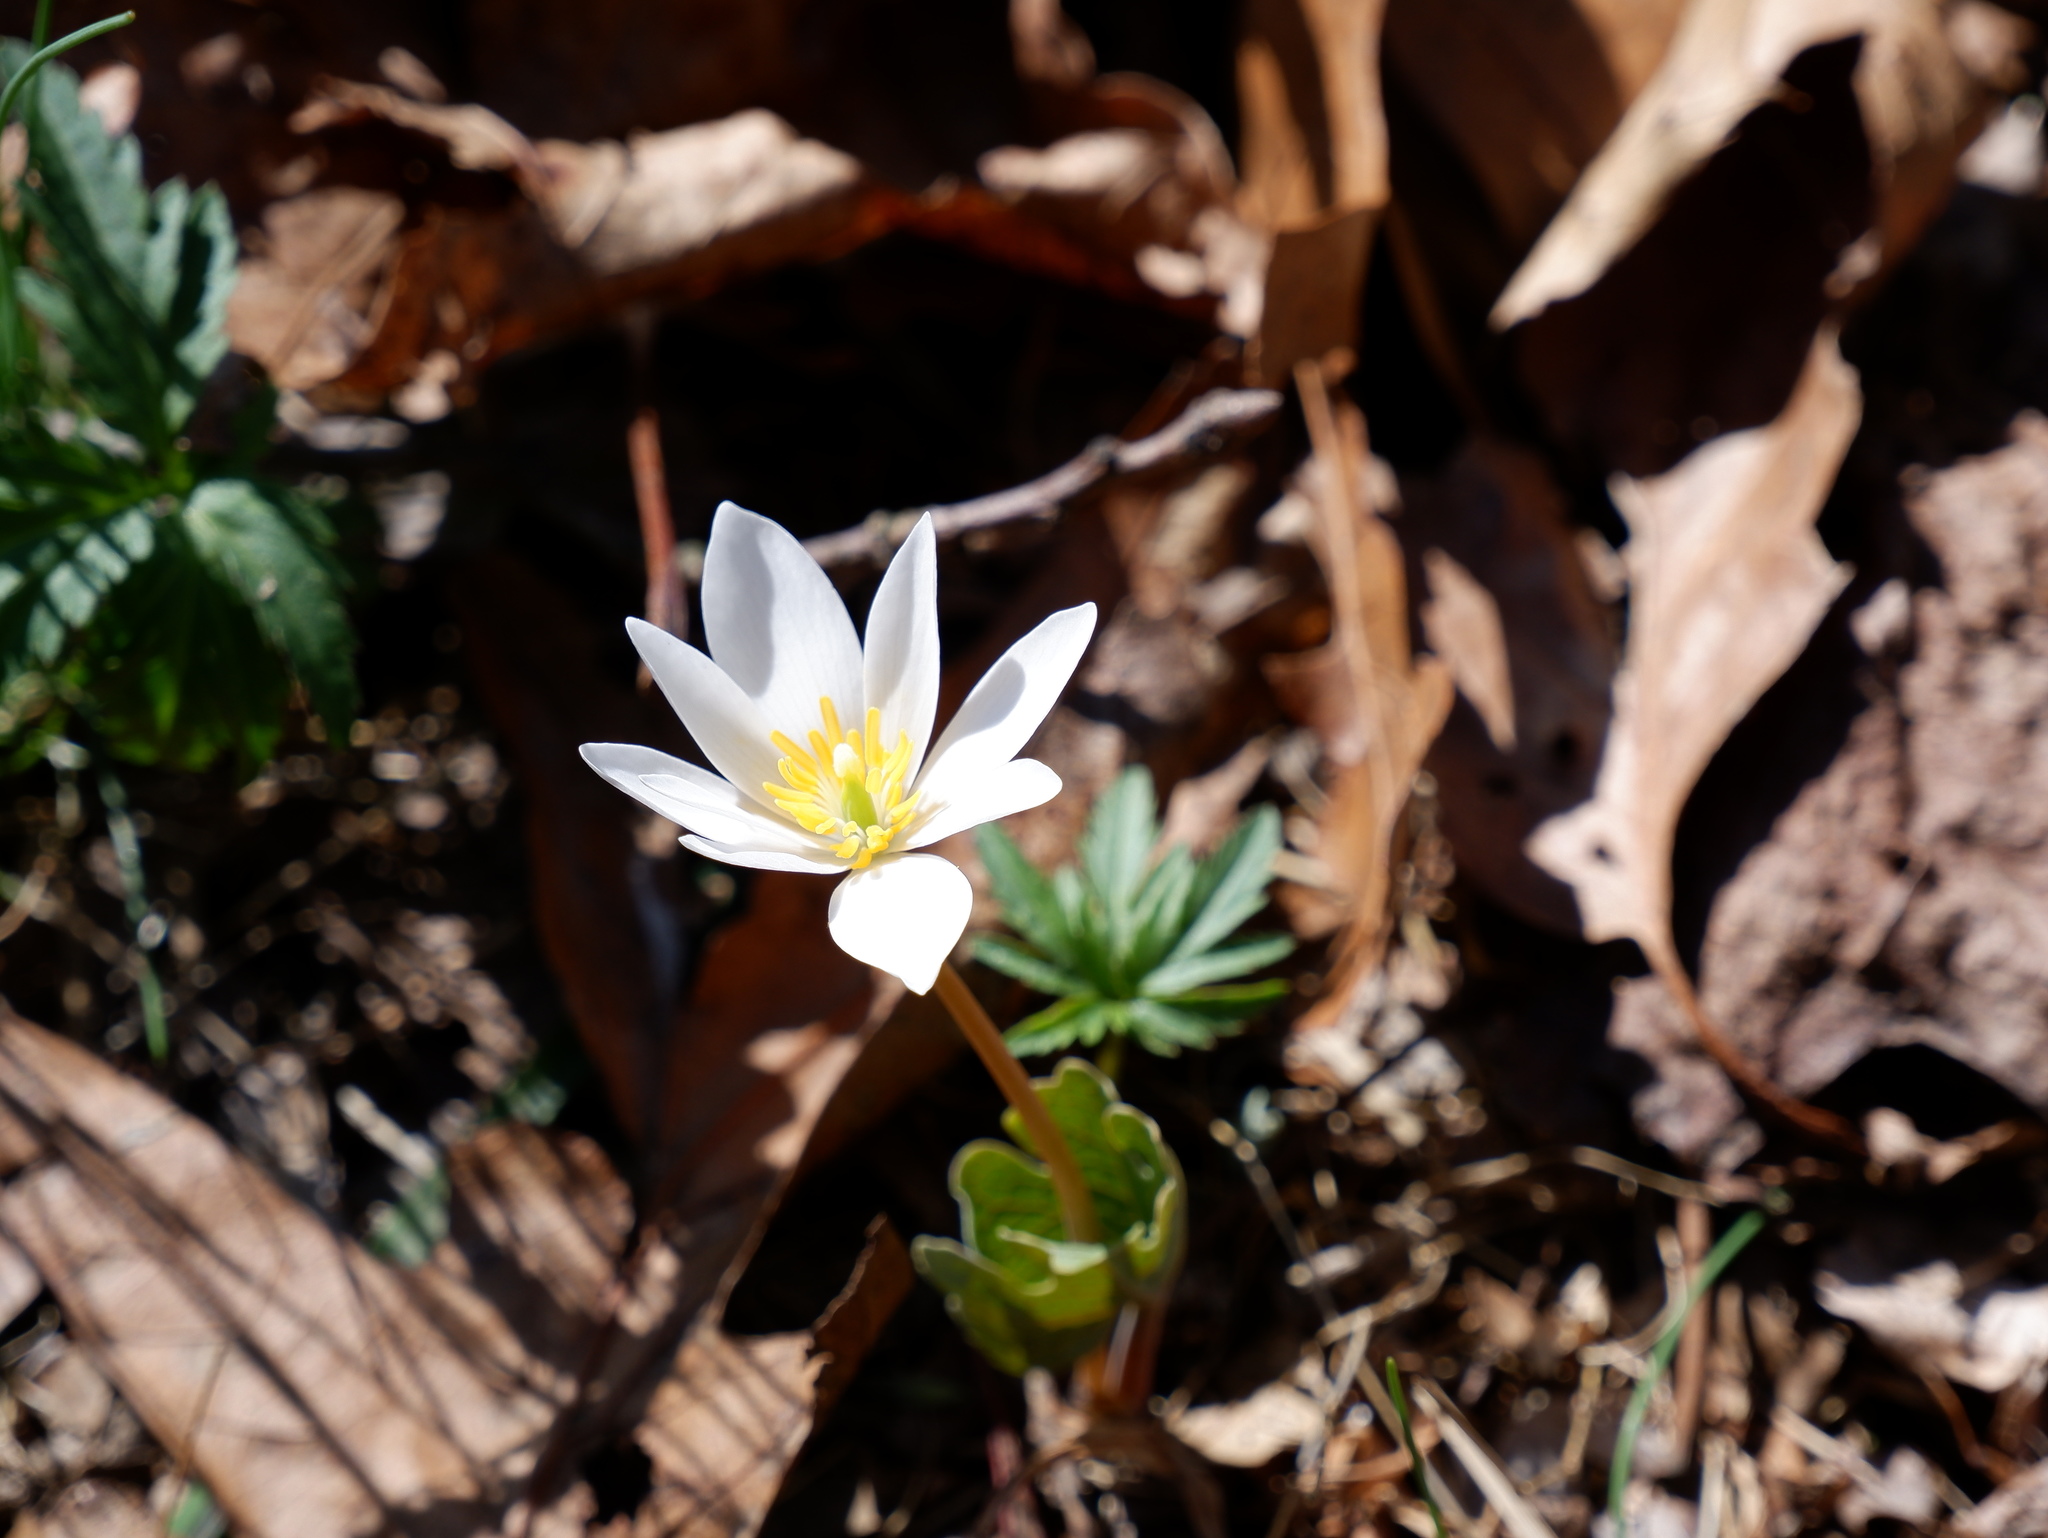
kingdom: Plantae
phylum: Tracheophyta
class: Magnoliopsida
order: Ranunculales
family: Papaveraceae
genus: Sanguinaria
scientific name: Sanguinaria canadensis
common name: Bloodroot
